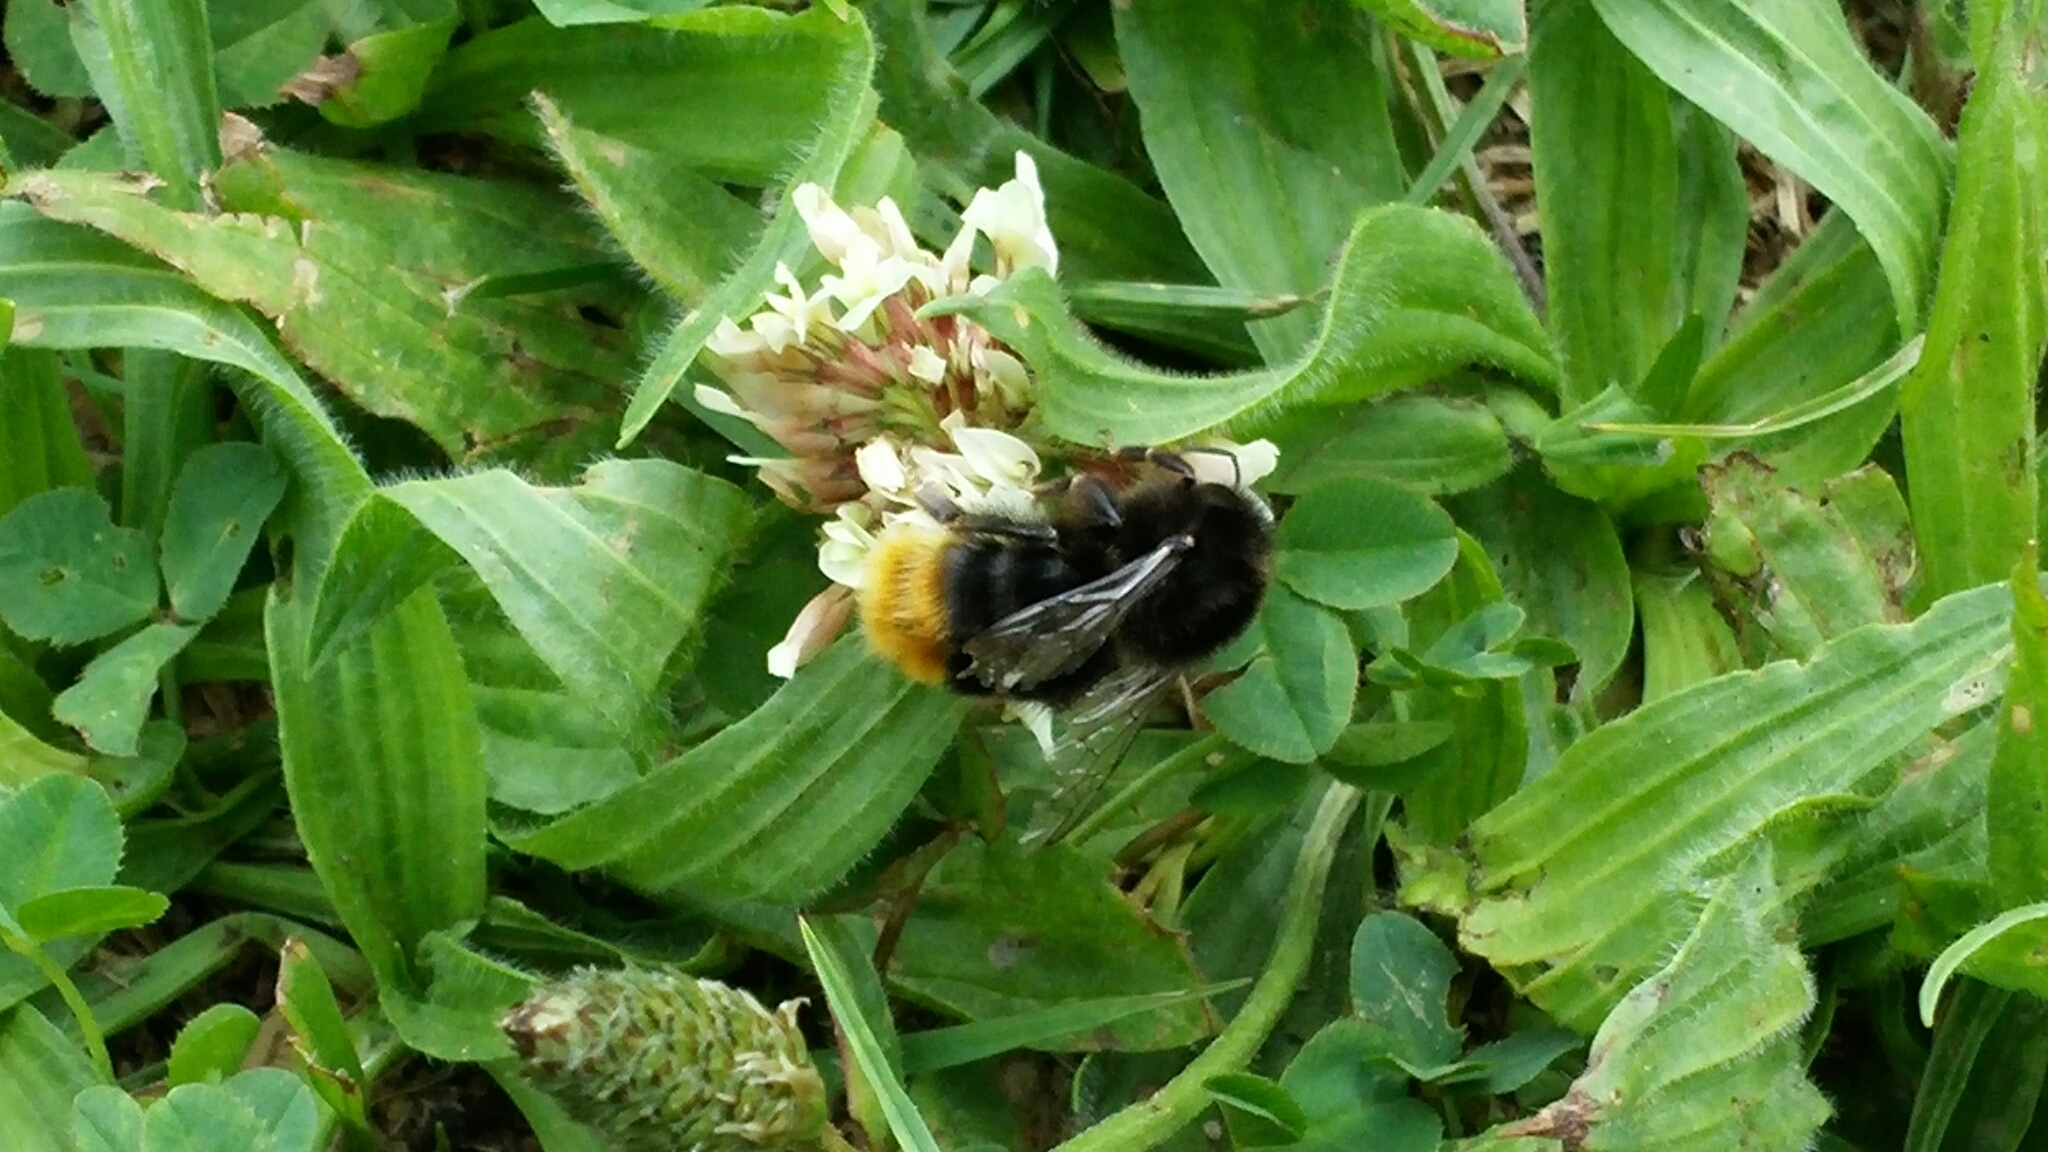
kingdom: Animalia
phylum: Arthropoda
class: Insecta
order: Hymenoptera
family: Apidae
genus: Bombus
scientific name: Bombus lapidarius
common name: Large red-tailed humble-bee
